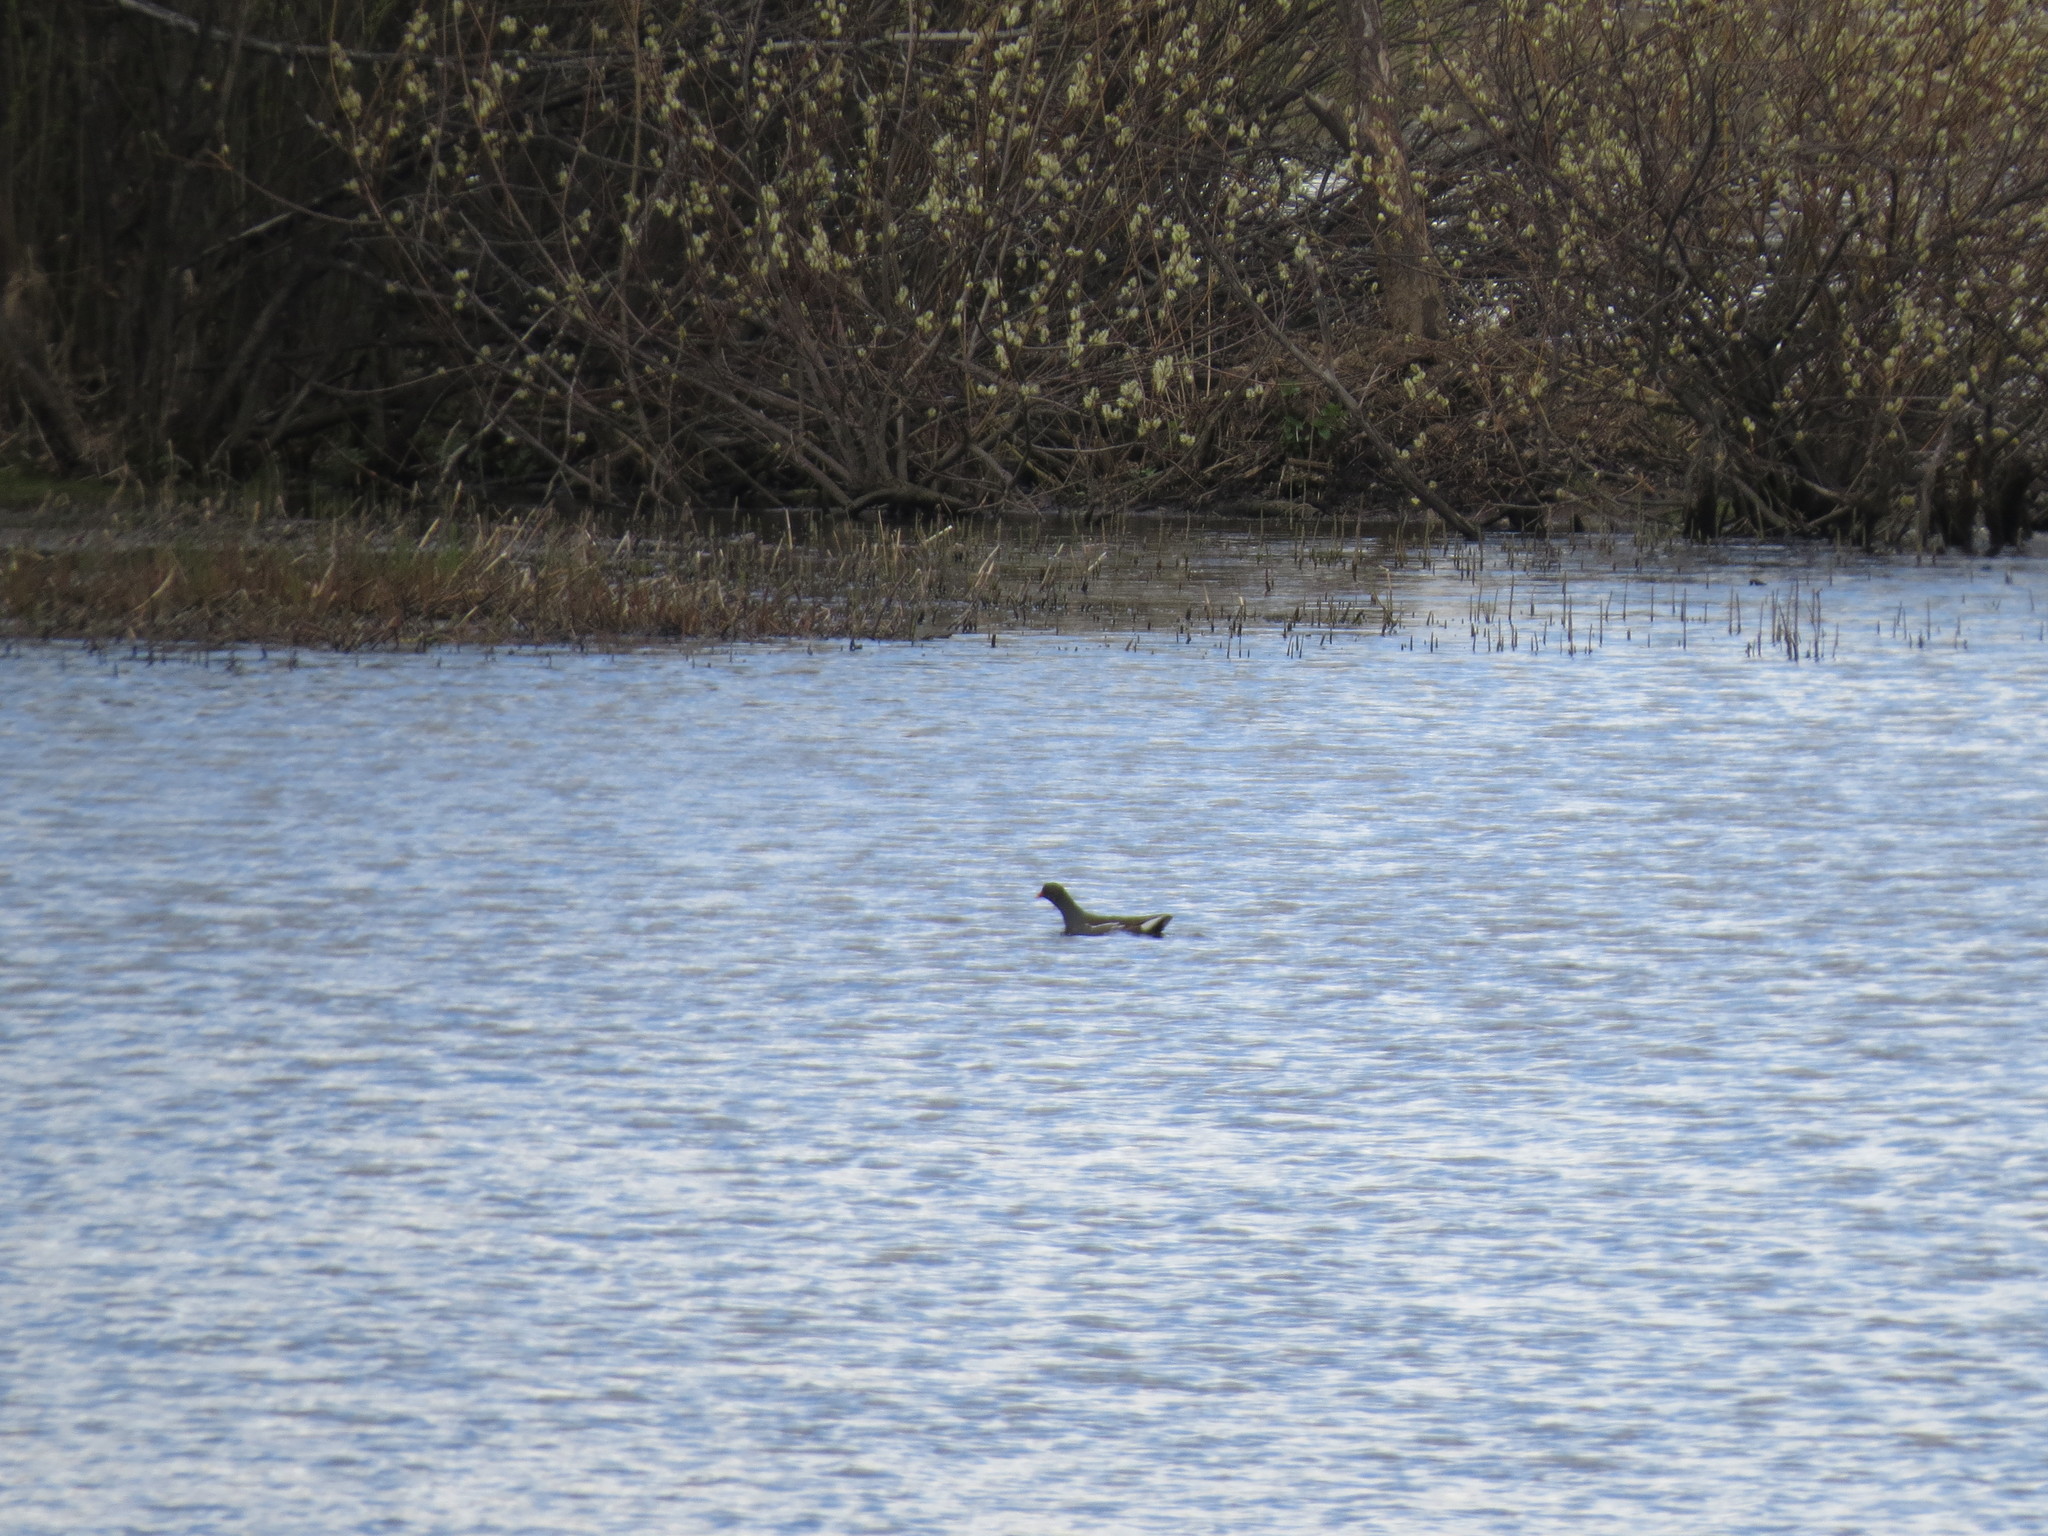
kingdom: Animalia
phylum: Chordata
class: Aves
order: Gruiformes
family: Rallidae
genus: Gallinula
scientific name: Gallinula chloropus
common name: Common moorhen
